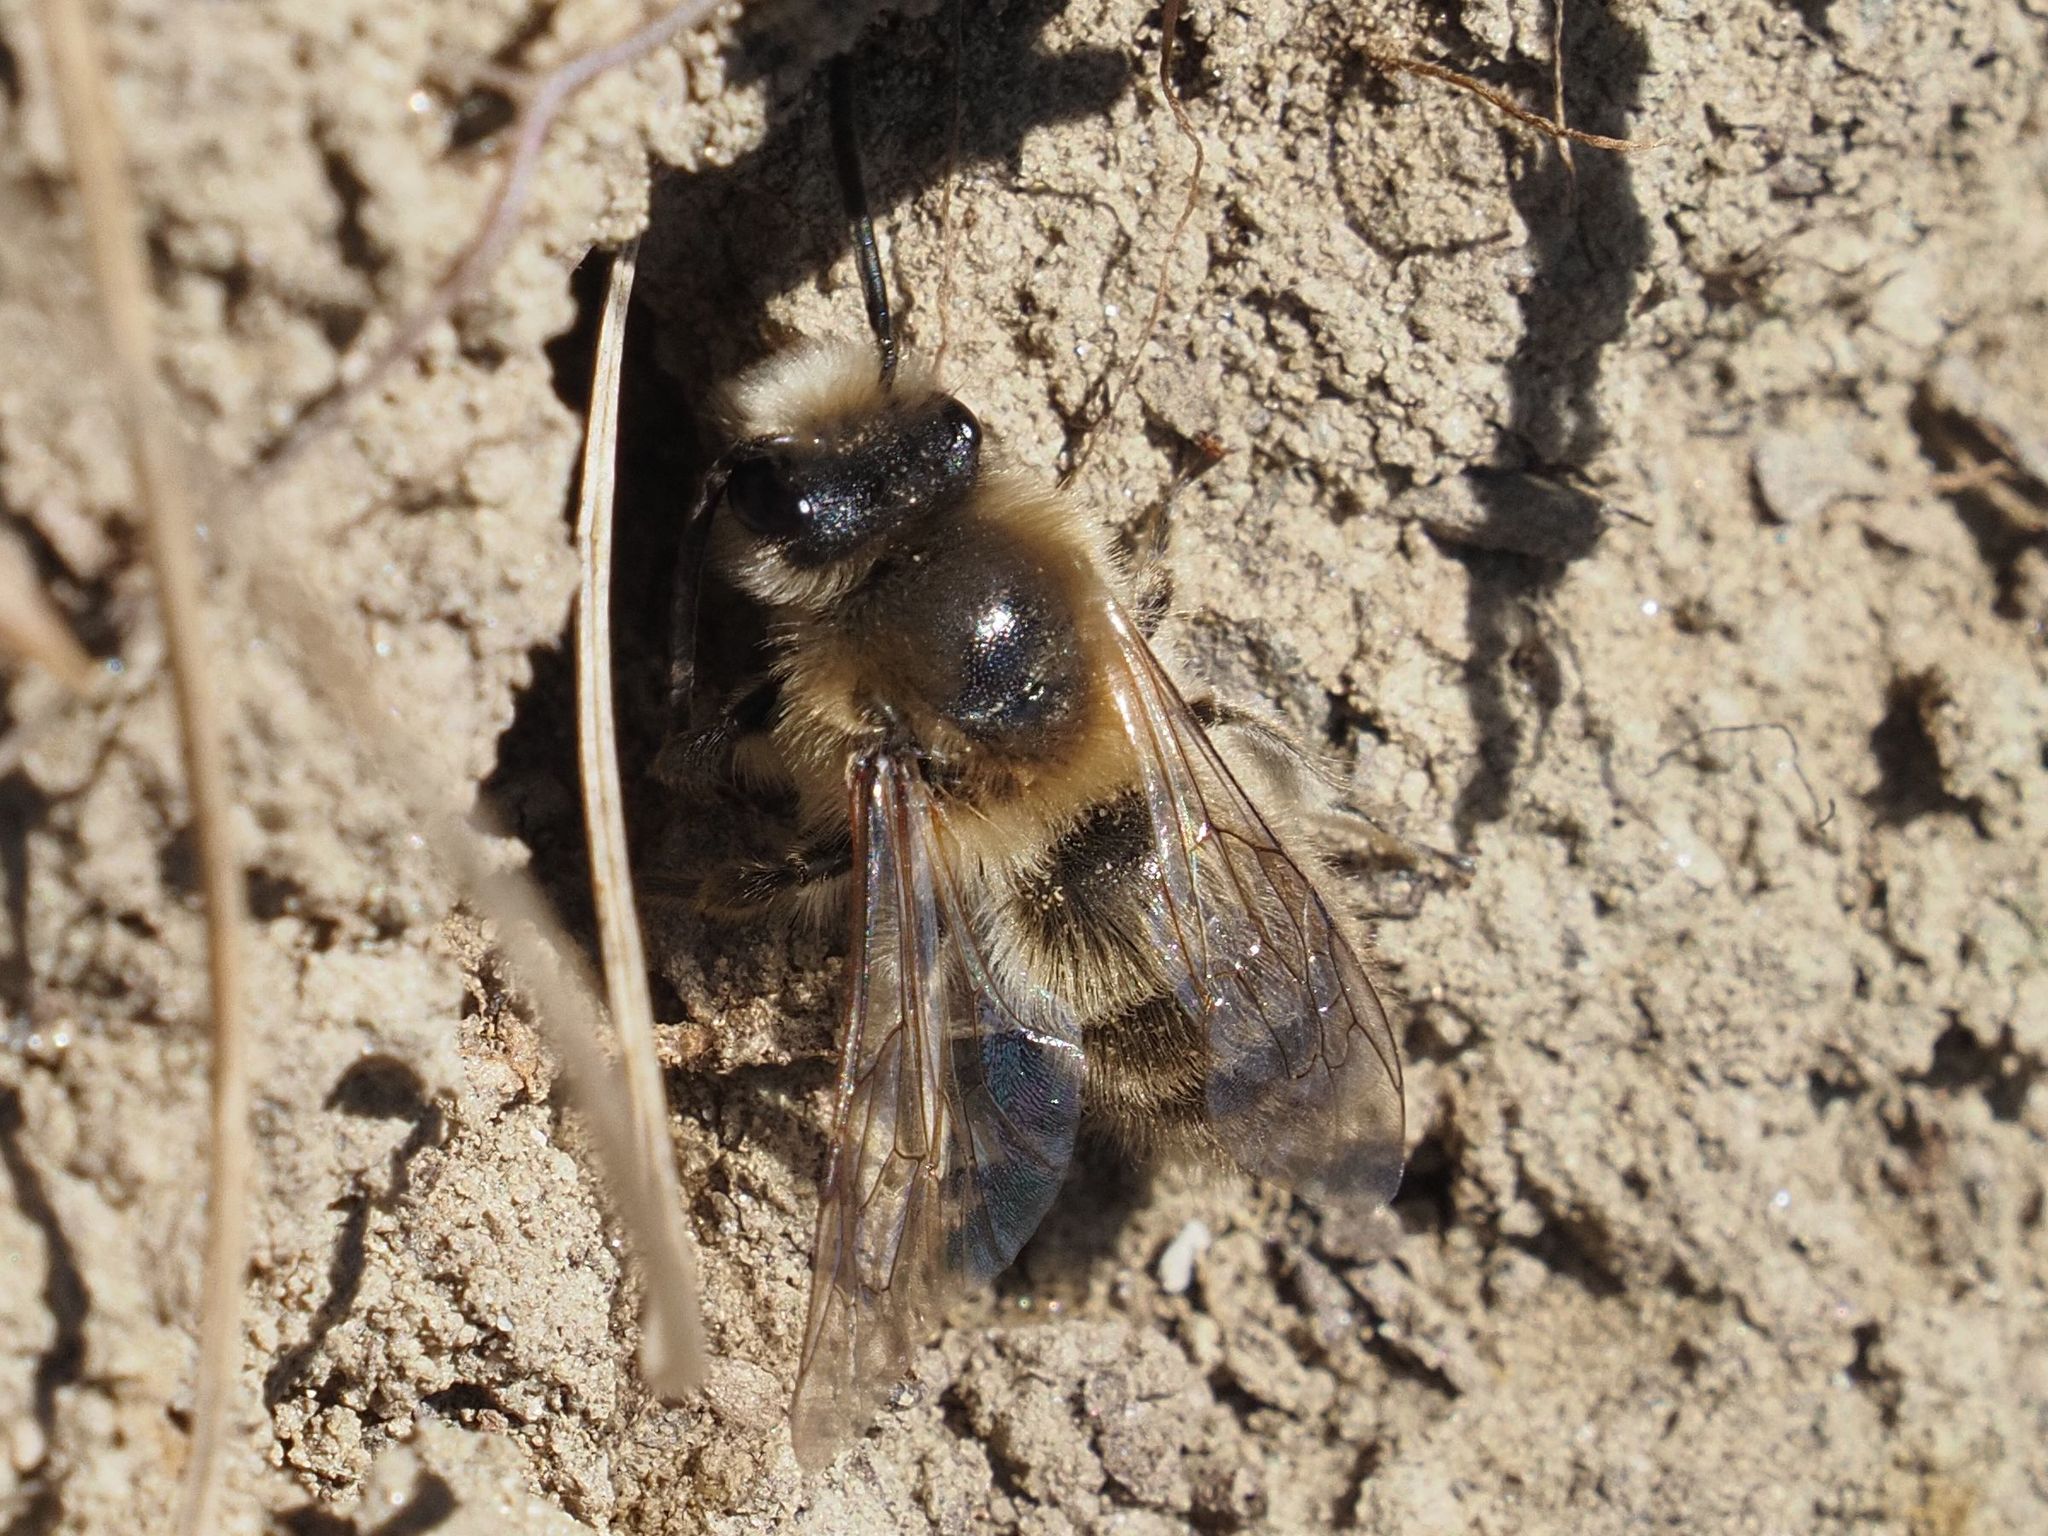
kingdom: Animalia
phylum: Arthropoda
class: Insecta
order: Hymenoptera
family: Colletidae
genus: Colletes
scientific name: Colletes cunicularius
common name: Early colletes
